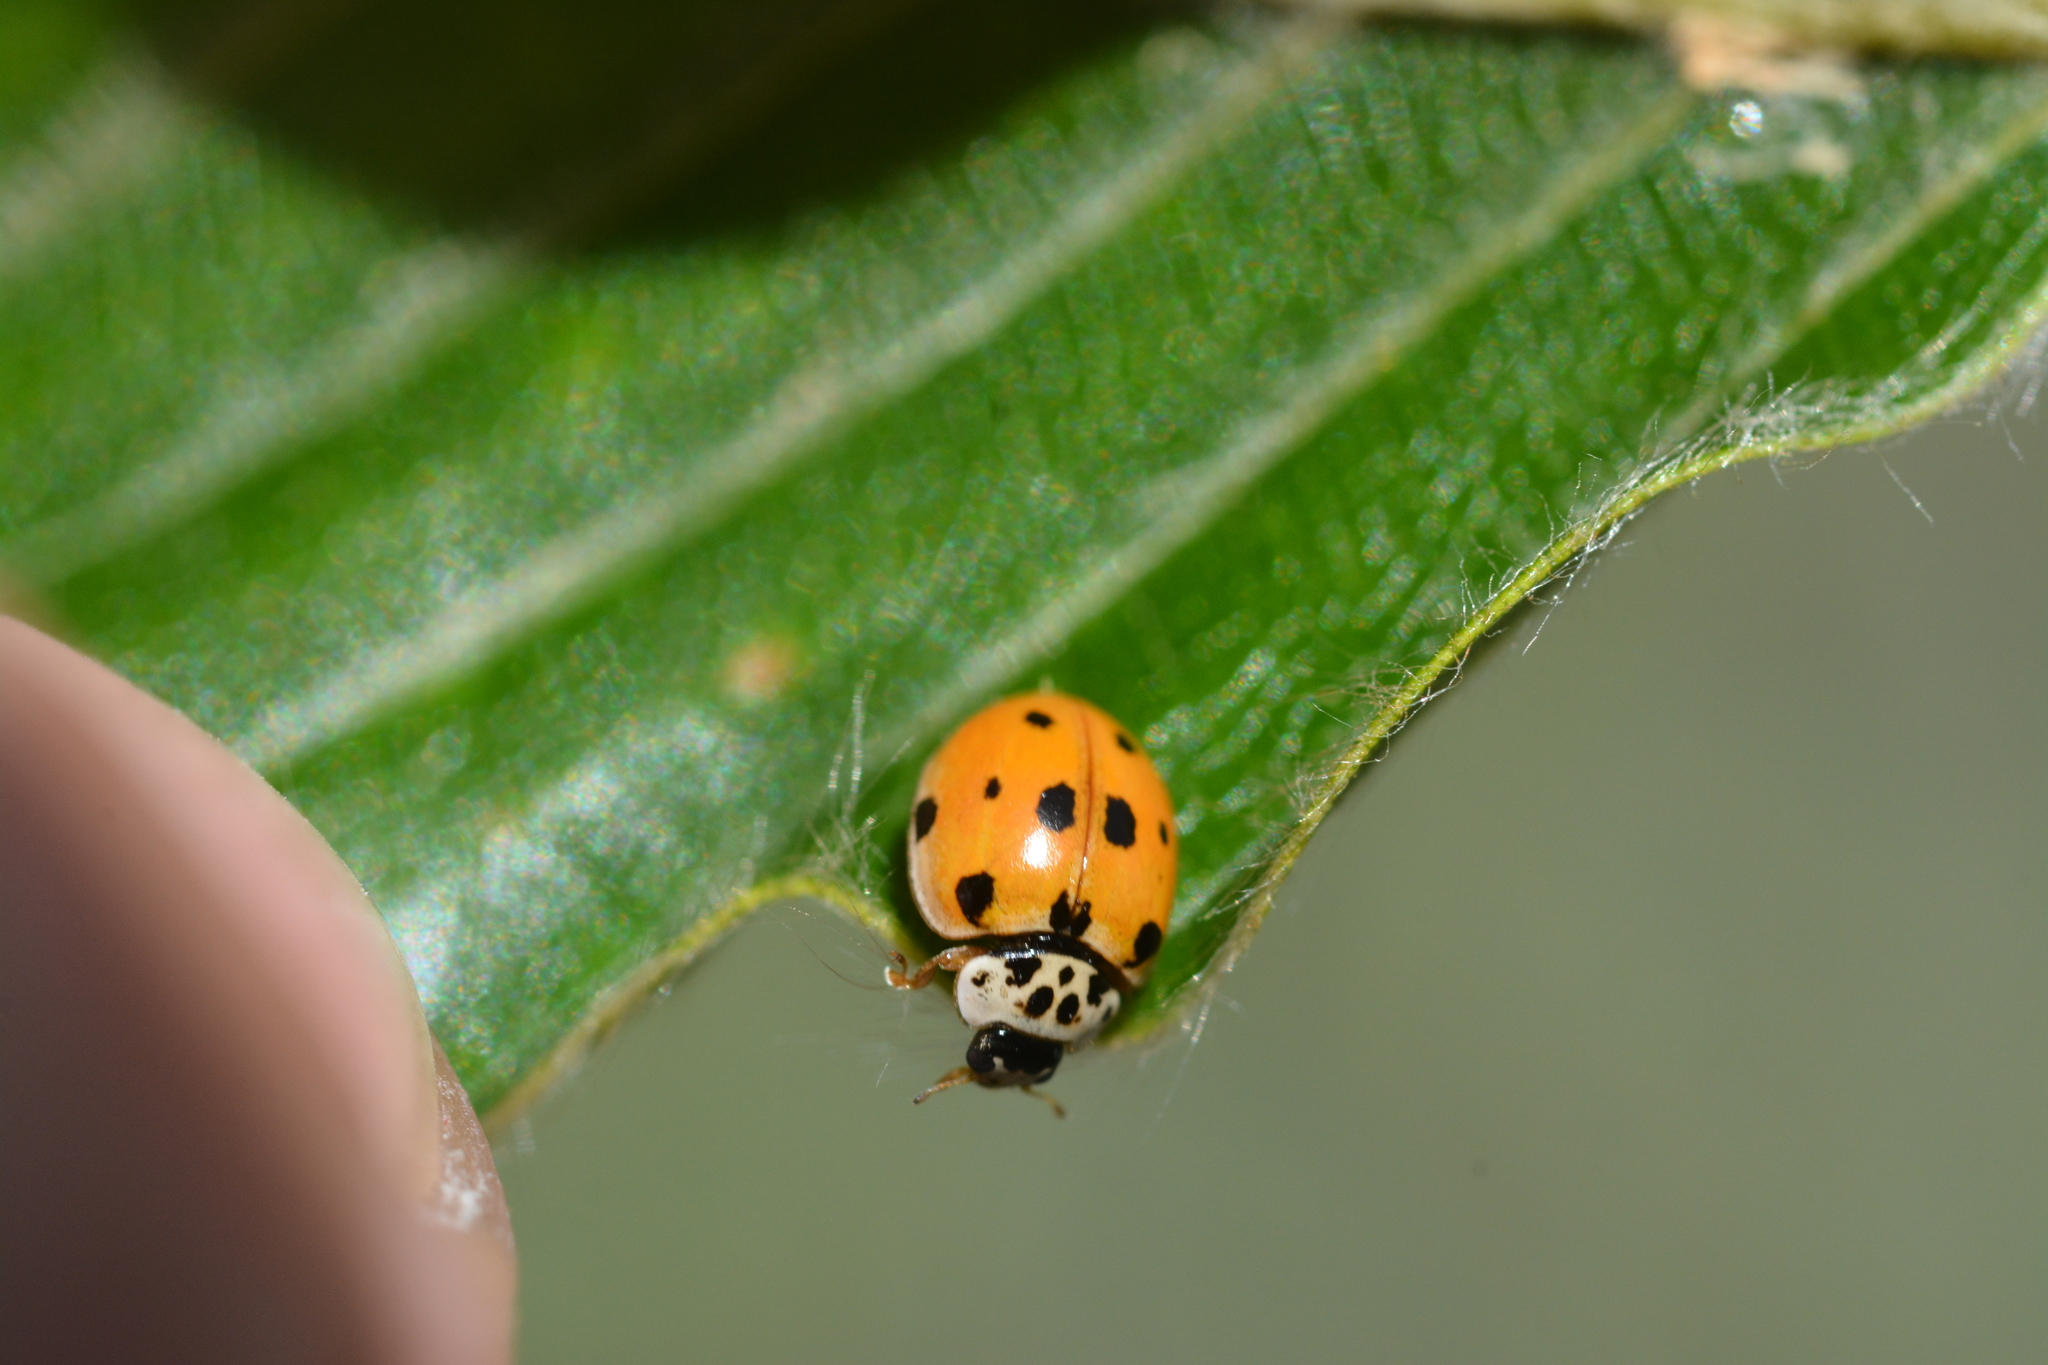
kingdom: Animalia
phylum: Arthropoda
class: Insecta
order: Coleoptera
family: Coccinellidae
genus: Adalia
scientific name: Adalia decempunctata
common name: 10-spot ladybird
